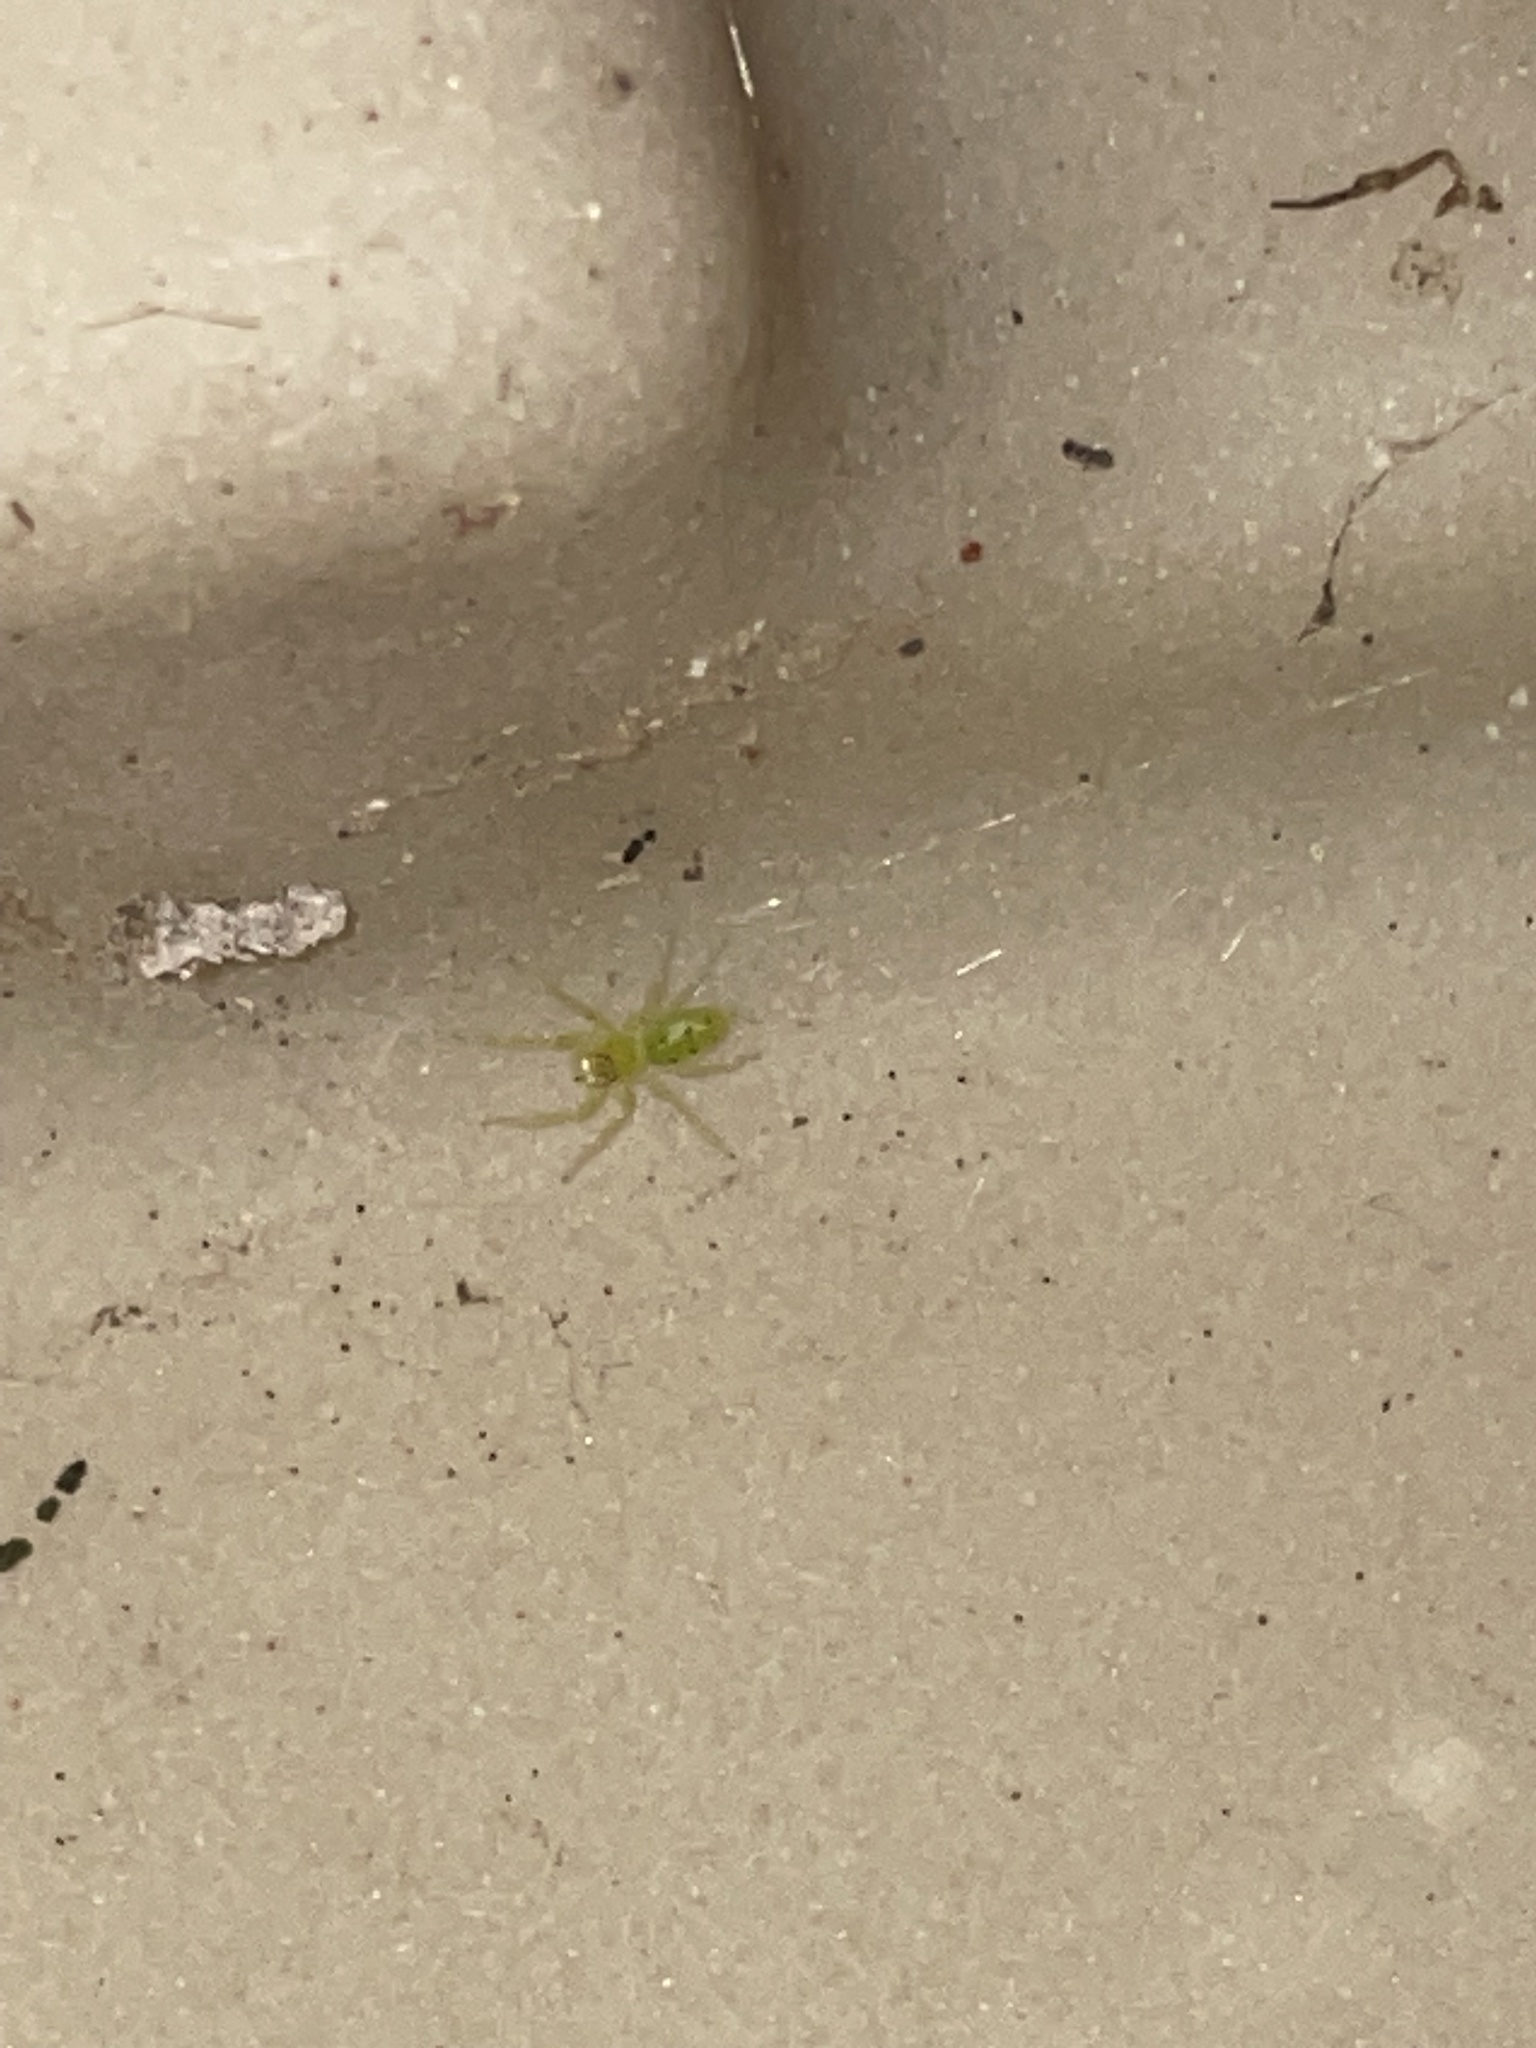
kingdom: Animalia
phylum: Arthropoda
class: Arachnida
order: Araneae
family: Salticidae
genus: Lyssomanes
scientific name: Lyssomanes viridis
